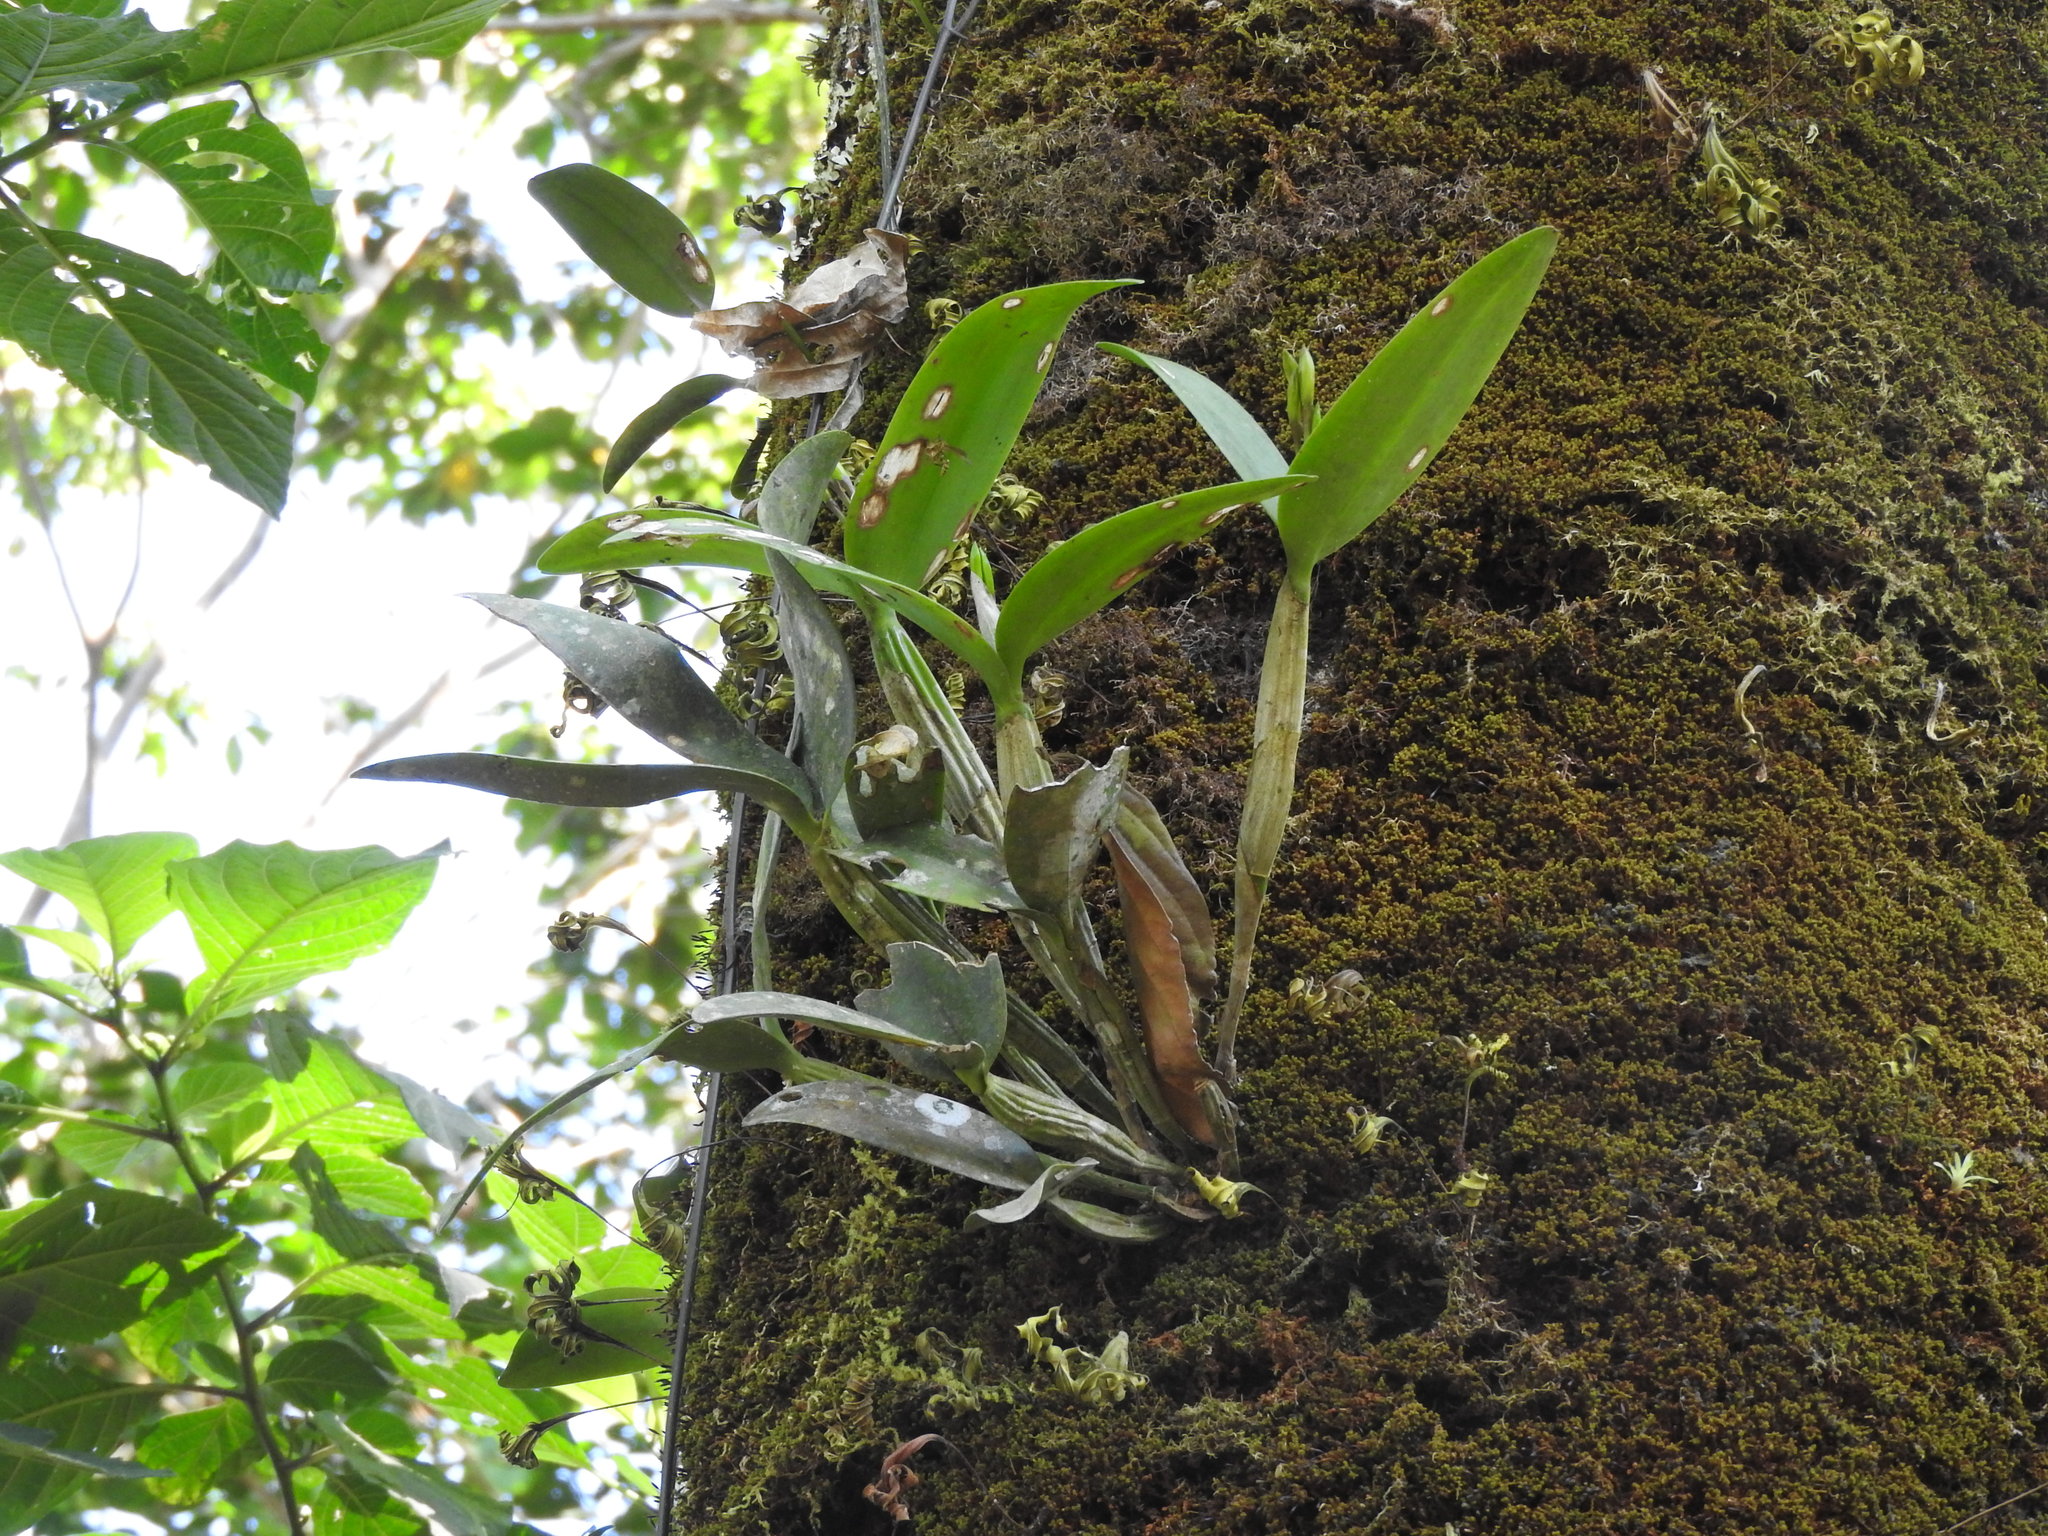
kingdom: Plantae
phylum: Tracheophyta
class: Liliopsida
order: Asparagales
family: Orchidaceae
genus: Guarianthe
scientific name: Guarianthe aurantiaca
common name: Orange cattleya
